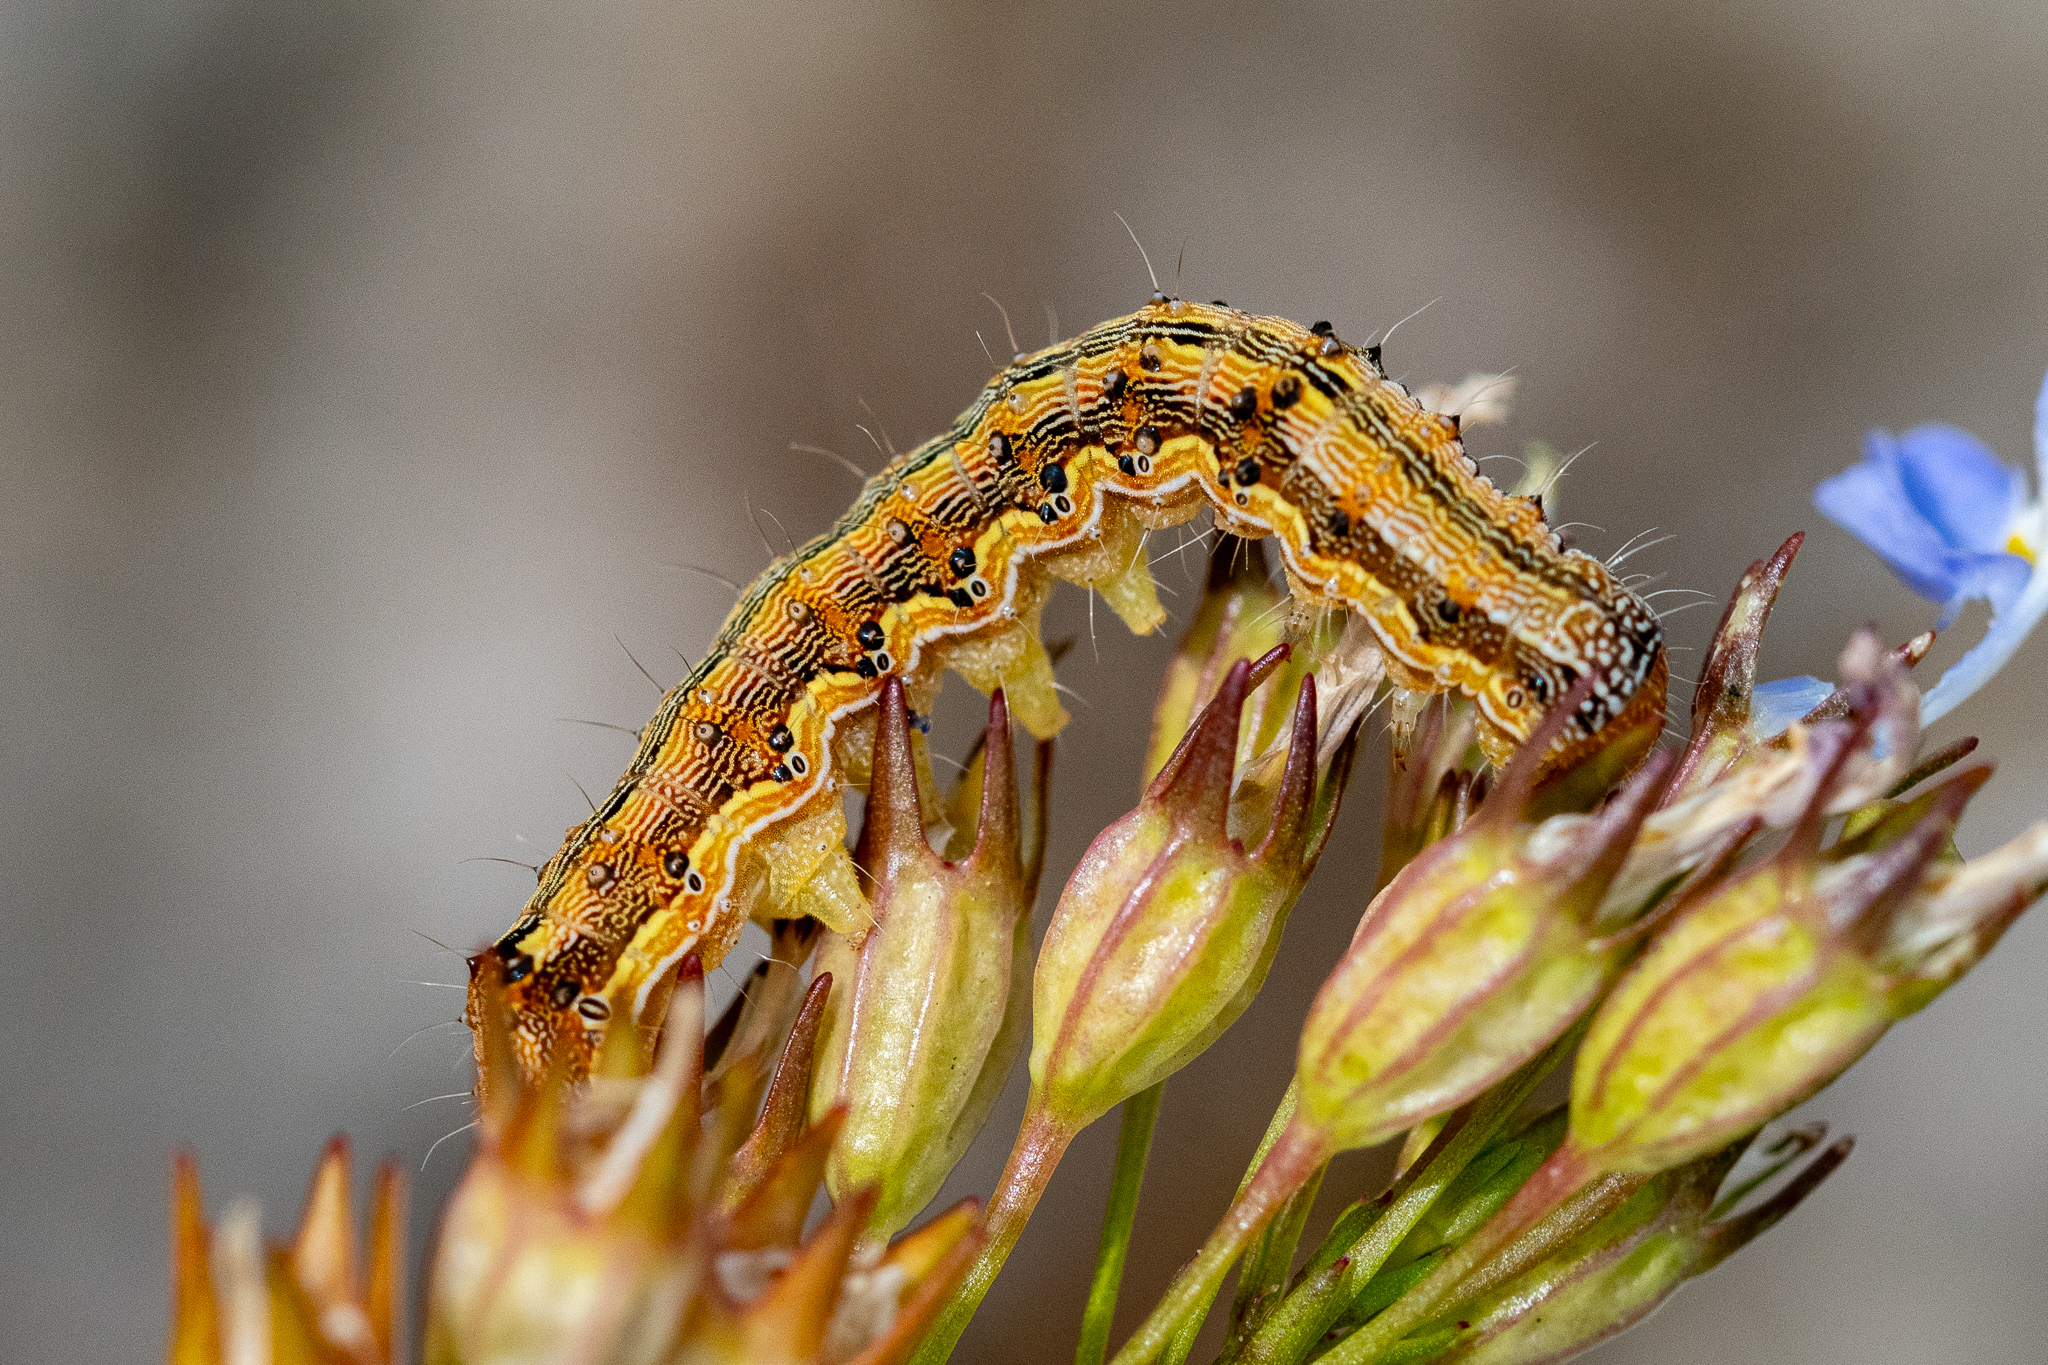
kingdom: Animalia
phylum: Arthropoda
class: Insecta
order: Lepidoptera
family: Noctuidae
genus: Helicoverpa
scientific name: Helicoverpa armigera
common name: Cotton bollworm
